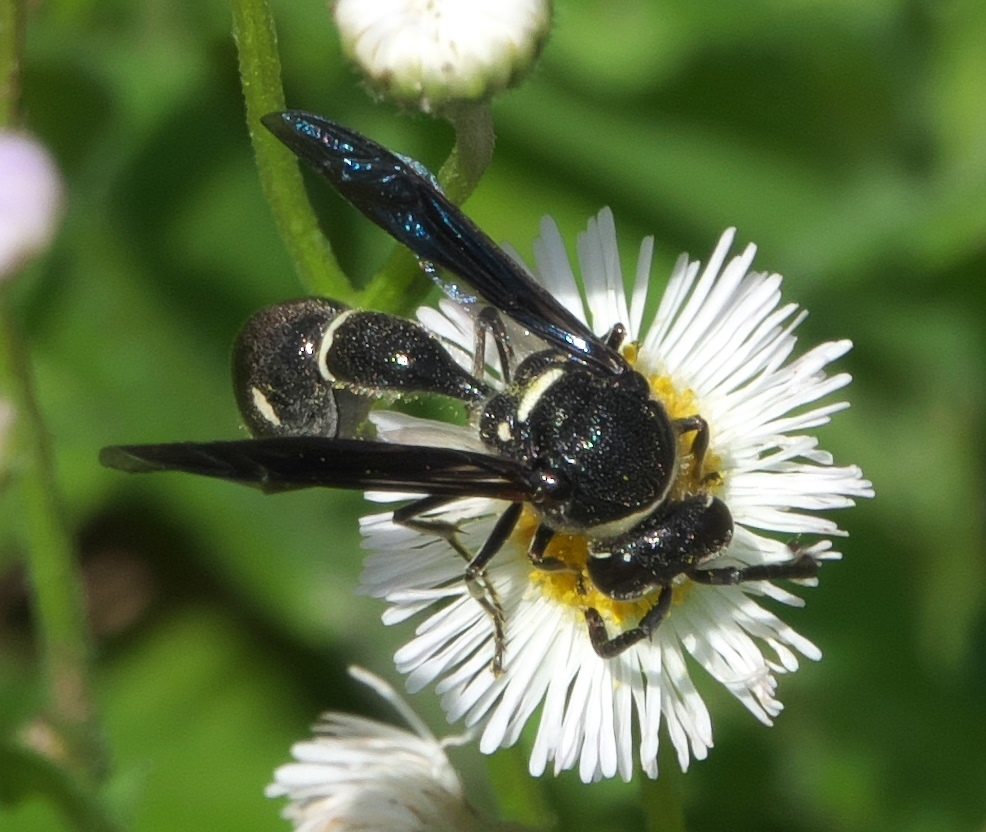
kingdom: Animalia
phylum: Arthropoda
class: Insecta
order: Hymenoptera
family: Vespidae
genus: Eumenes
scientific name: Eumenes fraternus
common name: Fraternal potter wasp
